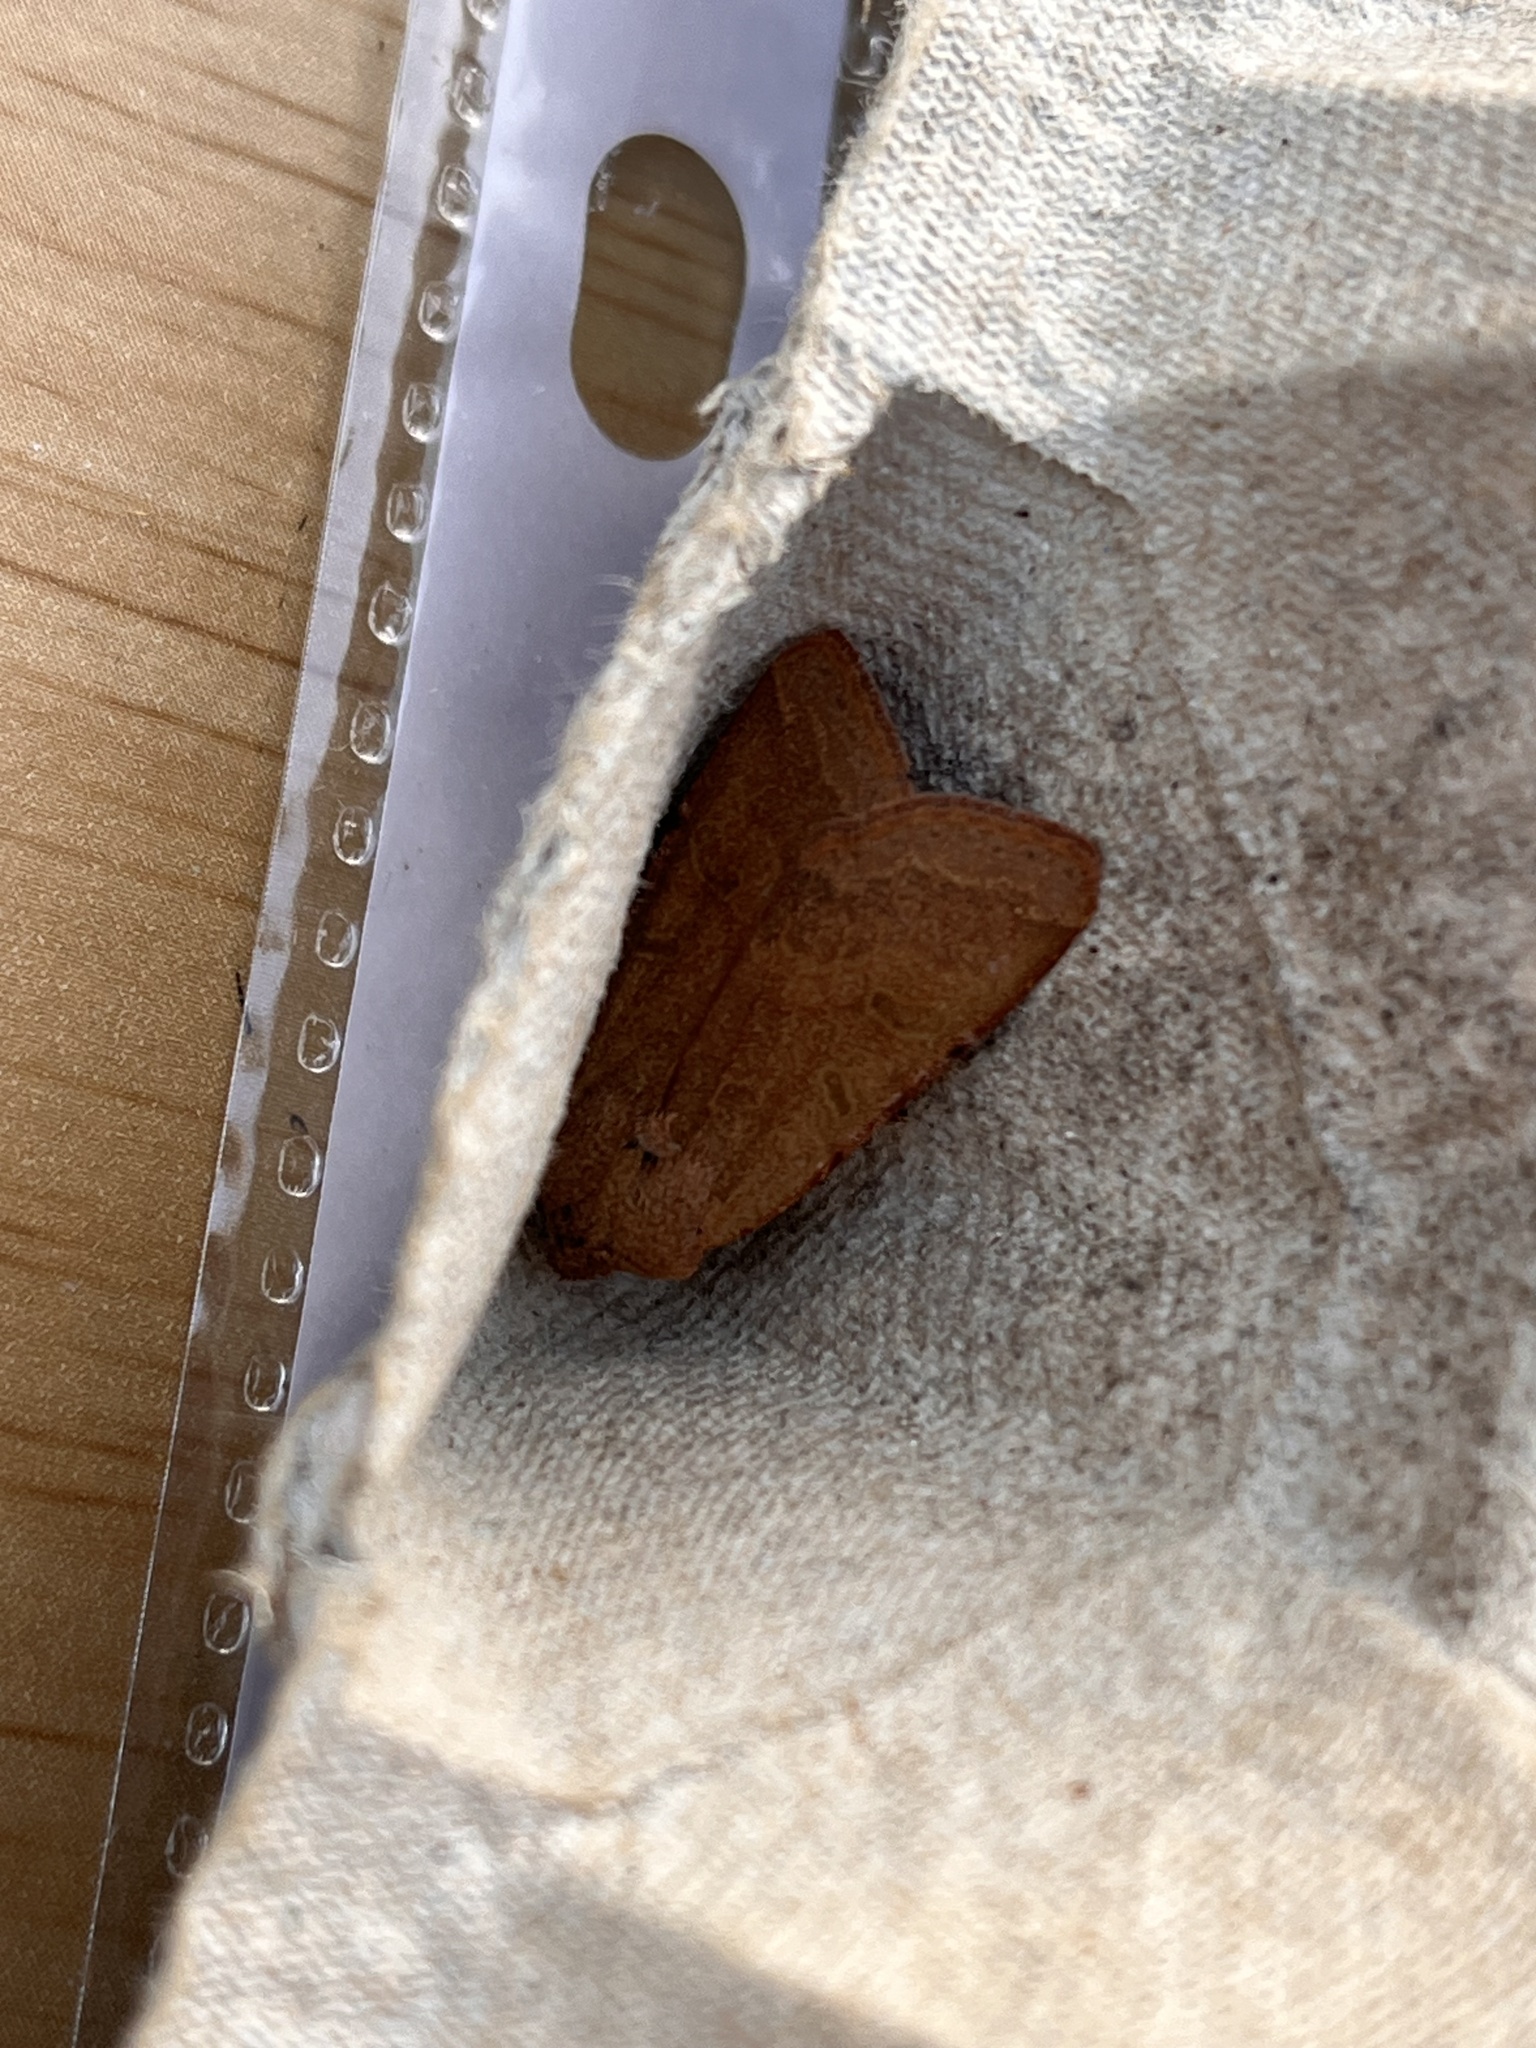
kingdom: Animalia
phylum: Arthropoda
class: Insecta
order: Lepidoptera
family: Noctuidae
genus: Agrochola
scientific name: Agrochola lychnidis
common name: Beaded chestnut
